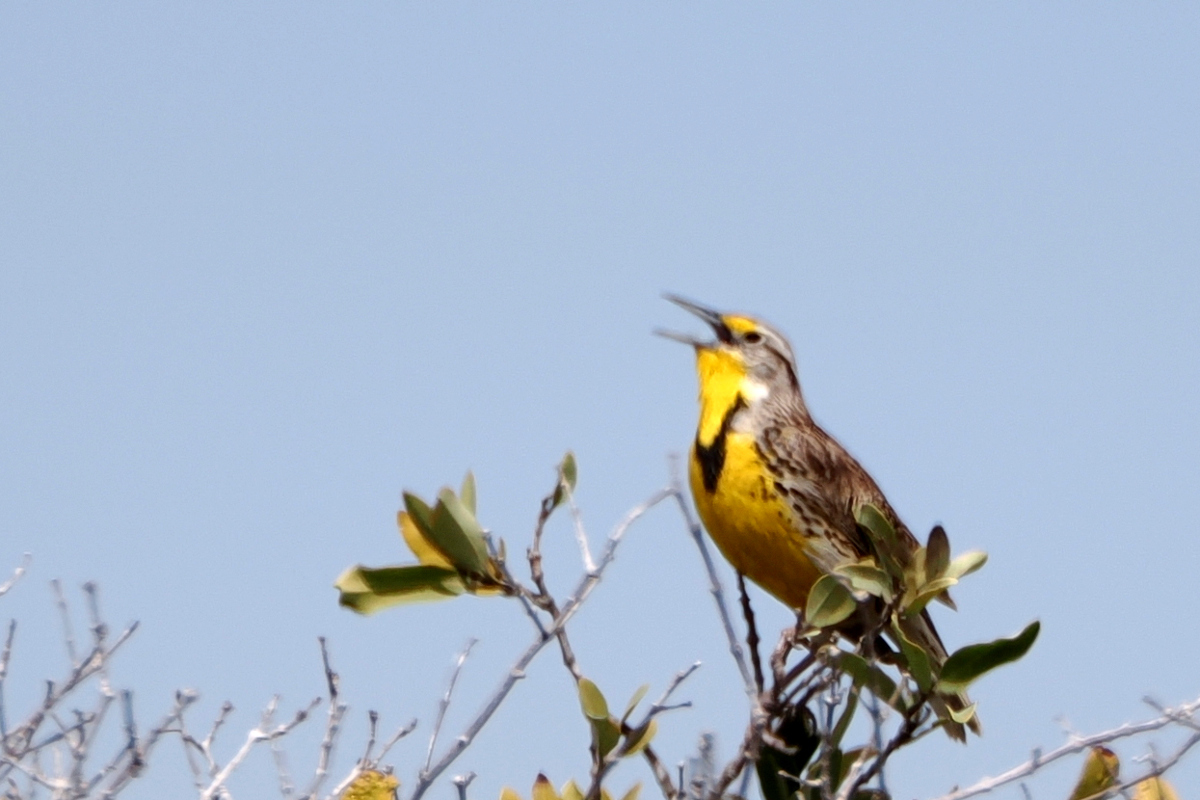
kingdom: Animalia
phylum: Chordata
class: Aves
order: Passeriformes
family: Icteridae
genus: Sturnella
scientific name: Sturnella neglecta
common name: Western meadowlark
